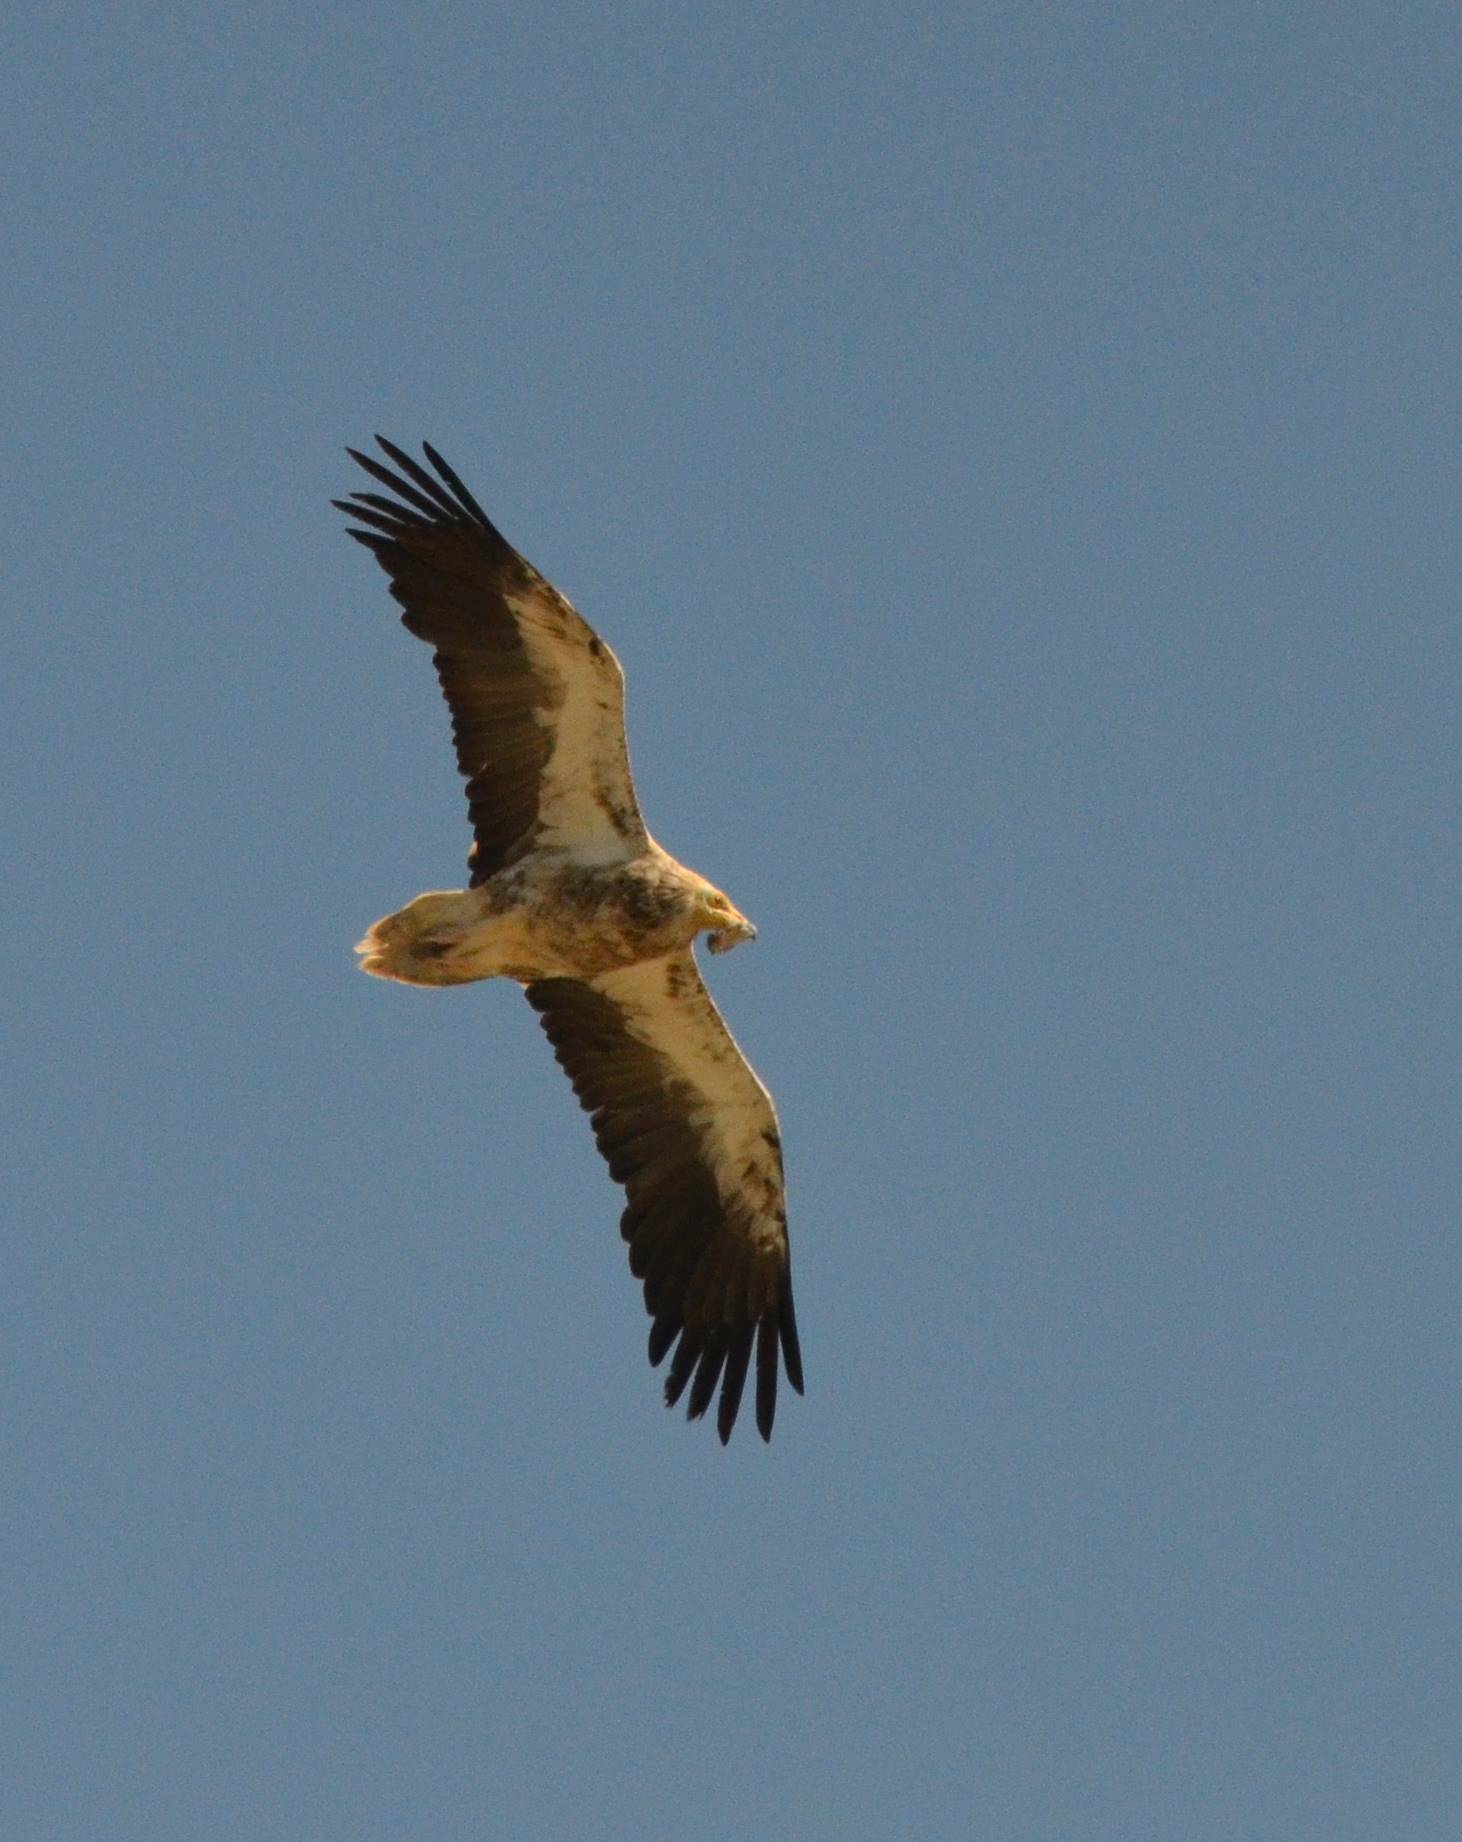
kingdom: Animalia
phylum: Chordata
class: Aves
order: Accipitriformes
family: Accipitridae
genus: Neophron
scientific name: Neophron percnopterus
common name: Egyptian vulture
